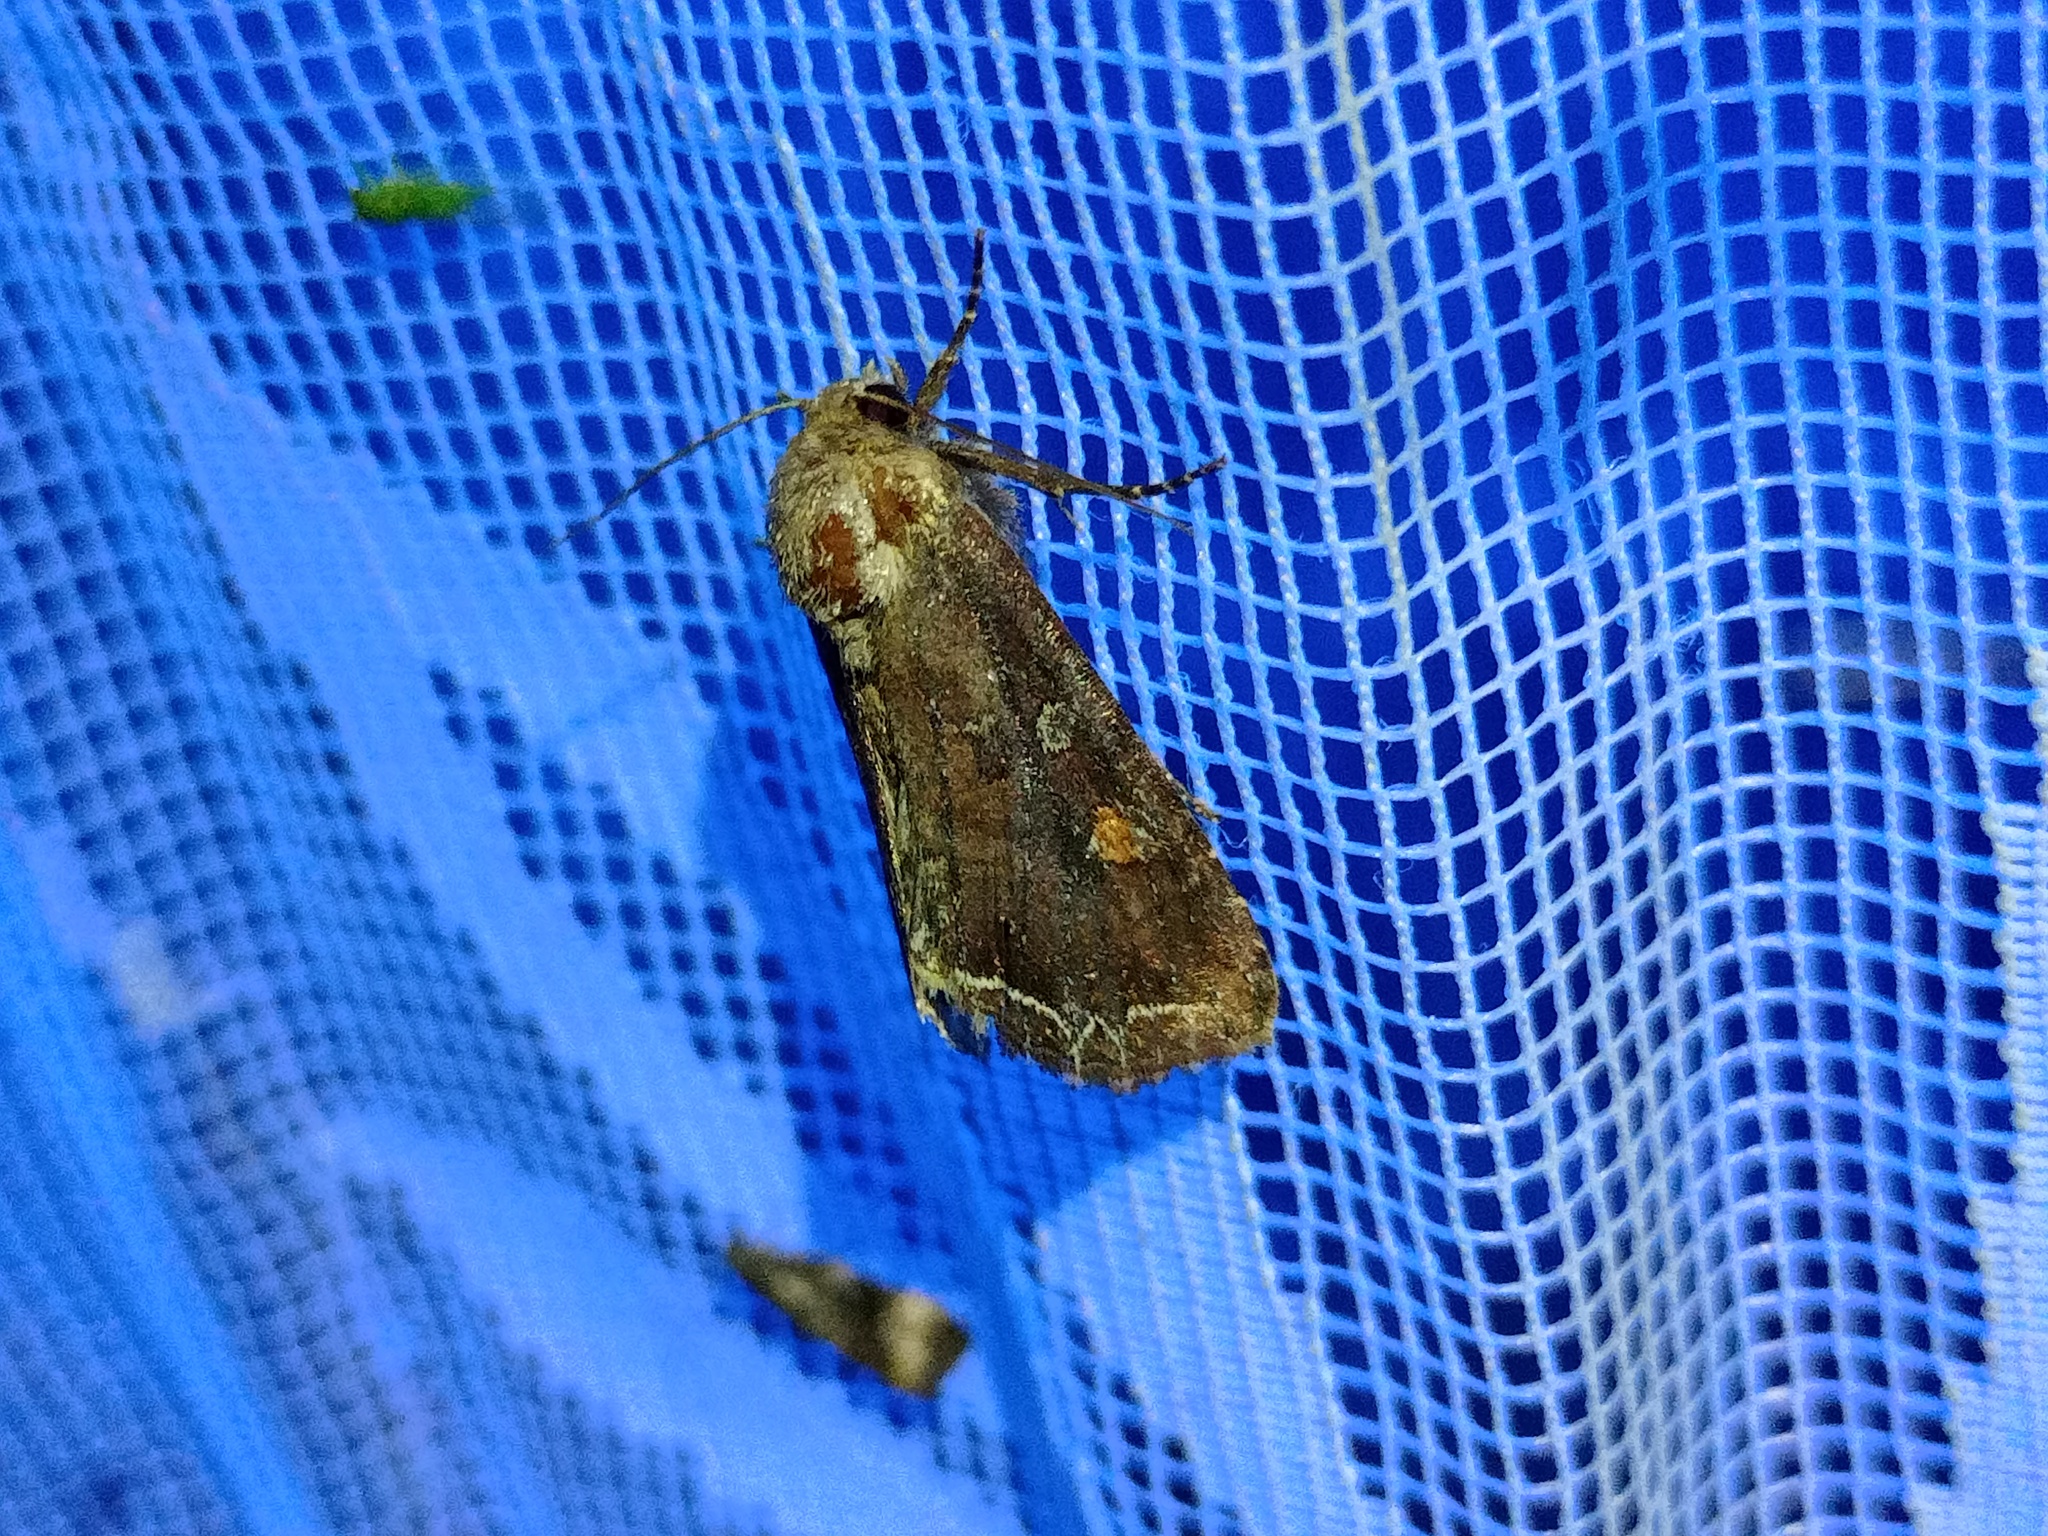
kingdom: Animalia
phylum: Arthropoda
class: Insecta
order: Lepidoptera
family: Noctuidae
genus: Lacanobia
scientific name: Lacanobia oleracea
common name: Bright-line brown-eye
